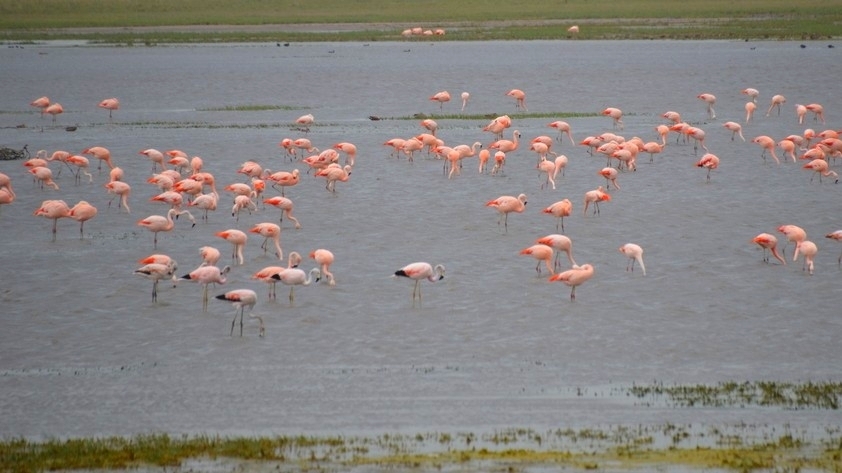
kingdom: Animalia
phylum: Chordata
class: Aves
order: Phoenicopteriformes
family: Phoenicopteridae
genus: Phoenicopterus
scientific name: Phoenicopterus chilensis
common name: Chilean flamingo
